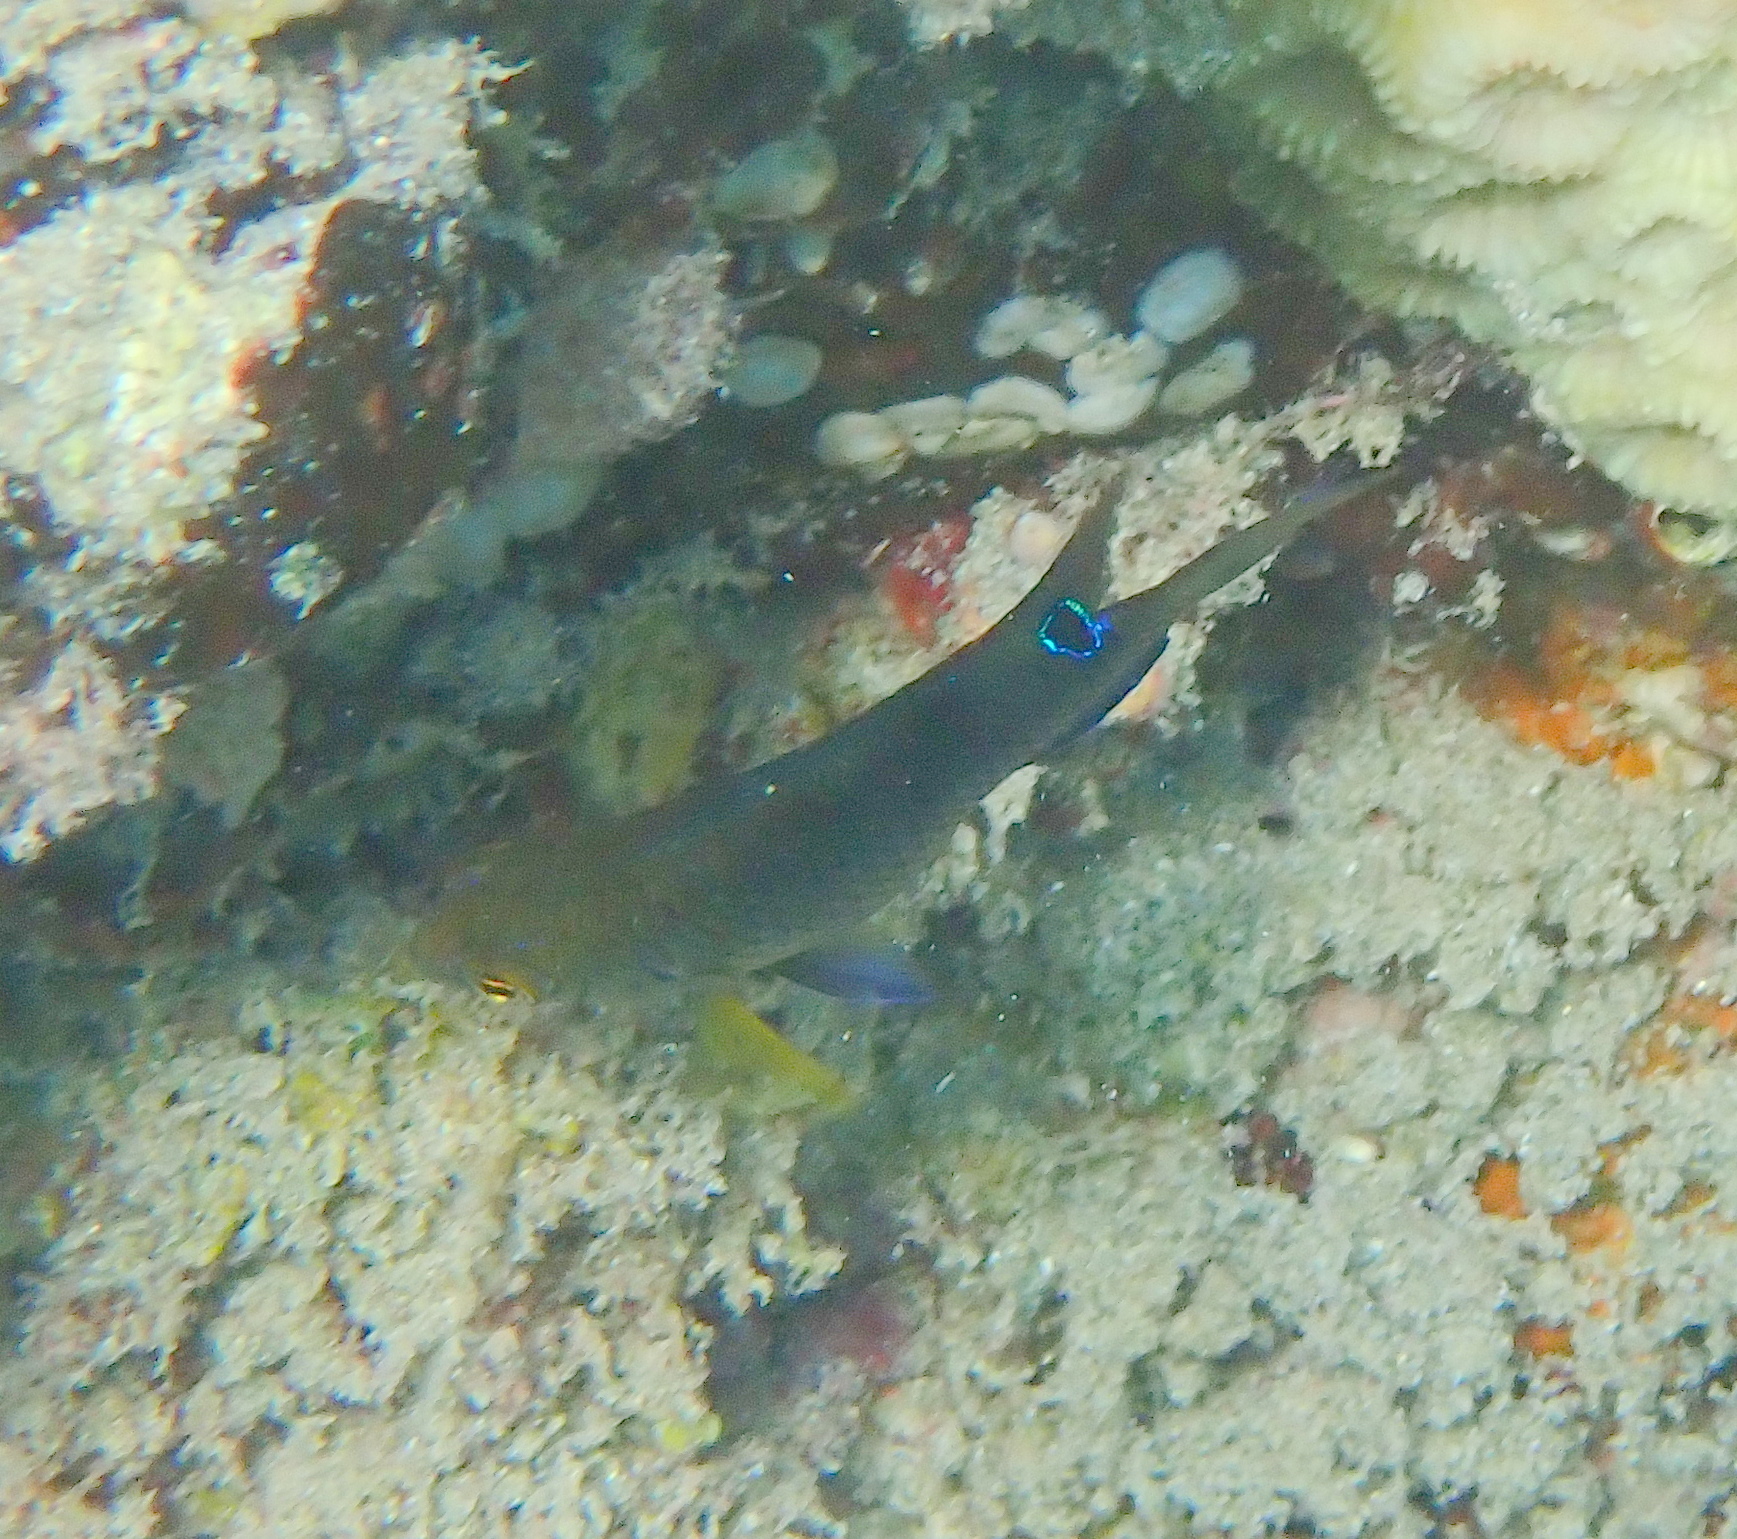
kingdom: Animalia
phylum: Chordata
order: Perciformes
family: Pomacentridae
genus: Chrysiptera
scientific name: Chrysiptera unimaculata
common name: Onespot demoiselle
